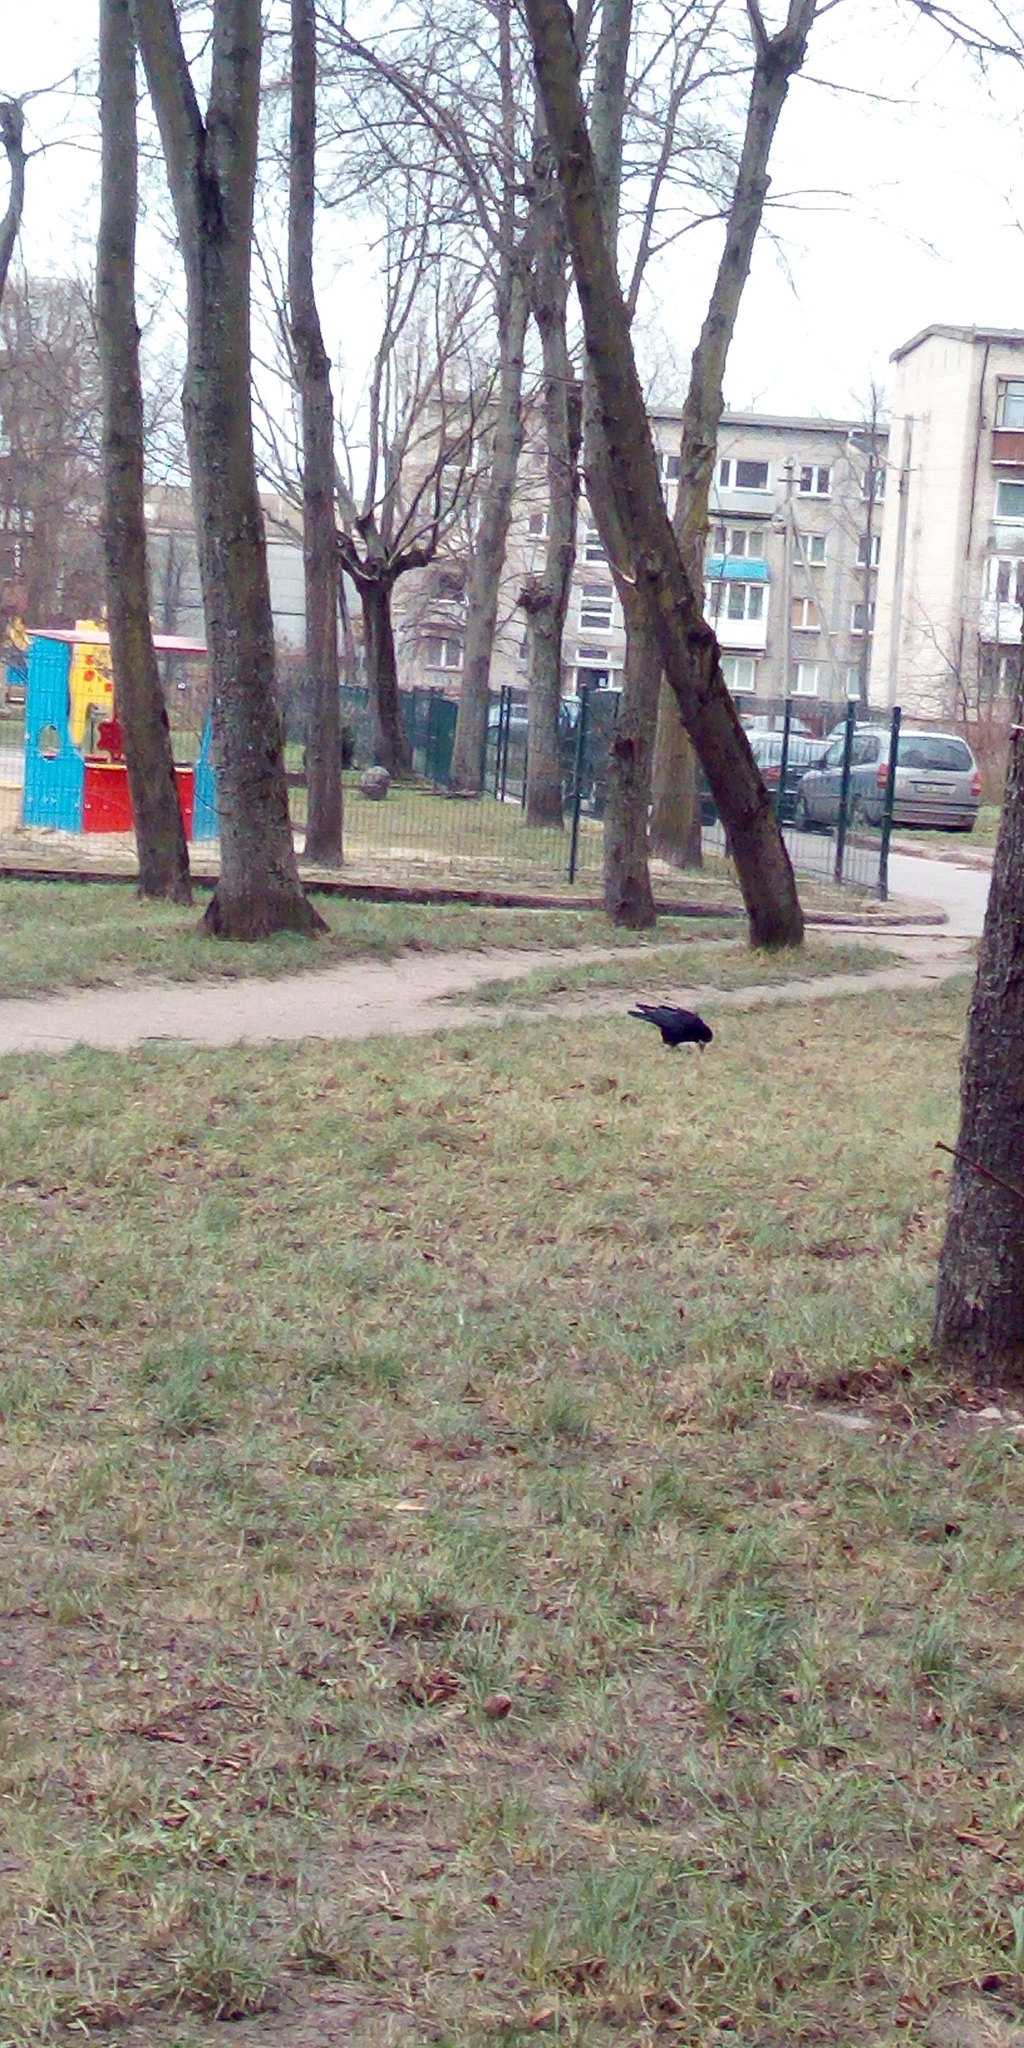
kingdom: Animalia
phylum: Chordata
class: Aves
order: Passeriformes
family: Corvidae
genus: Corvus
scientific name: Corvus frugilegus
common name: Rook
